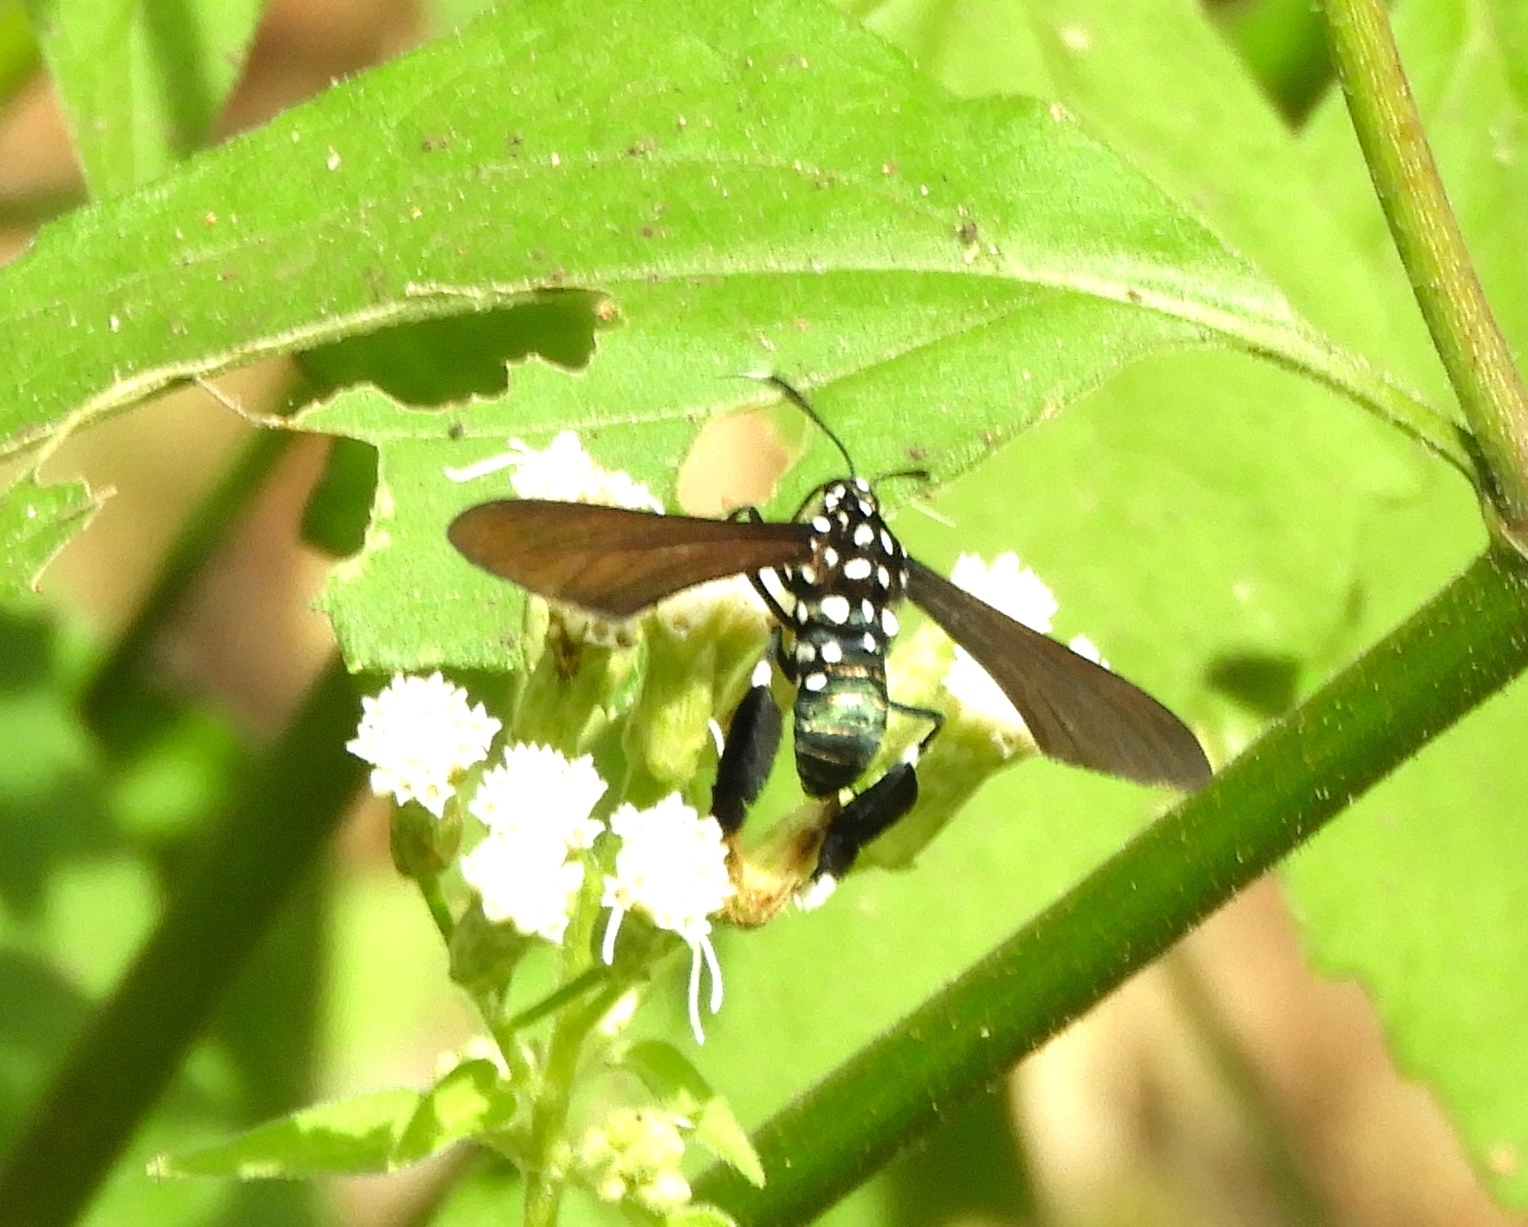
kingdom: Animalia
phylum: Arthropoda
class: Insecta
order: Lepidoptera
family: Erebidae
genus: Horama
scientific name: Horama plumipes
